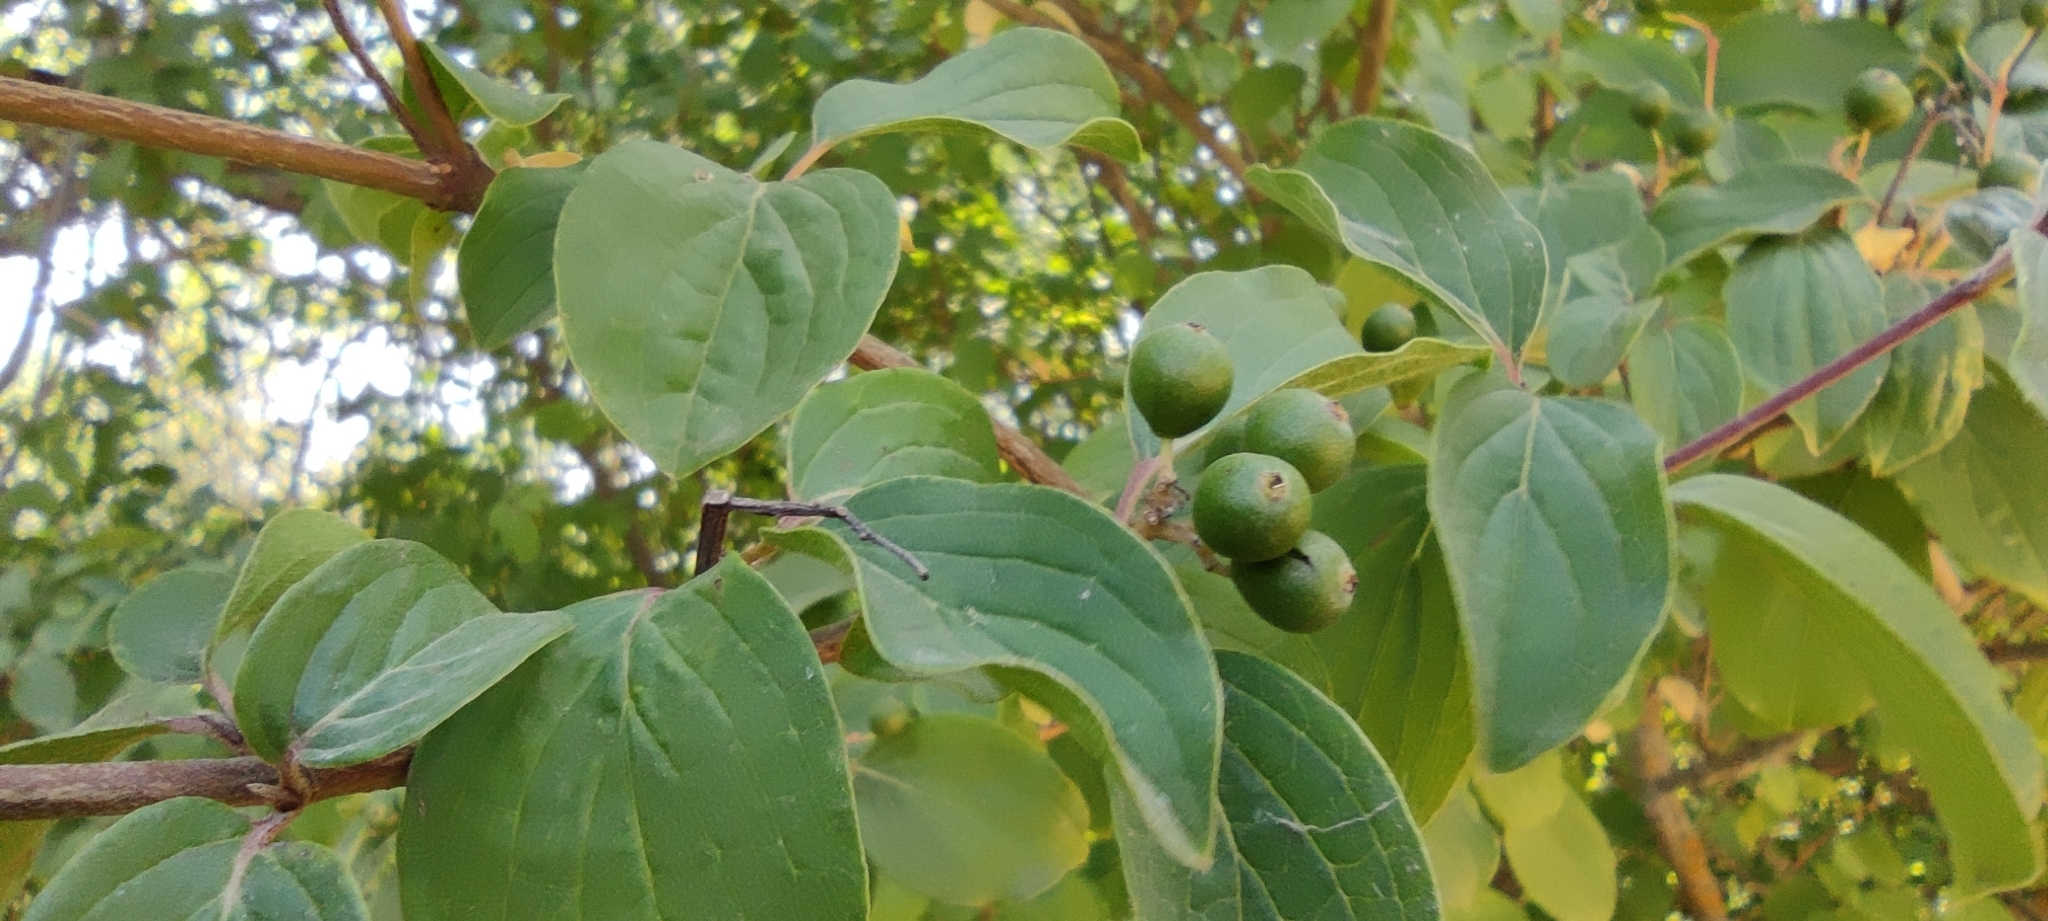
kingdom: Plantae
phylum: Tracheophyta
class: Magnoliopsida
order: Cornales
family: Cornaceae
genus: Cornus
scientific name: Cornus sanguinea
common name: Dogwood
